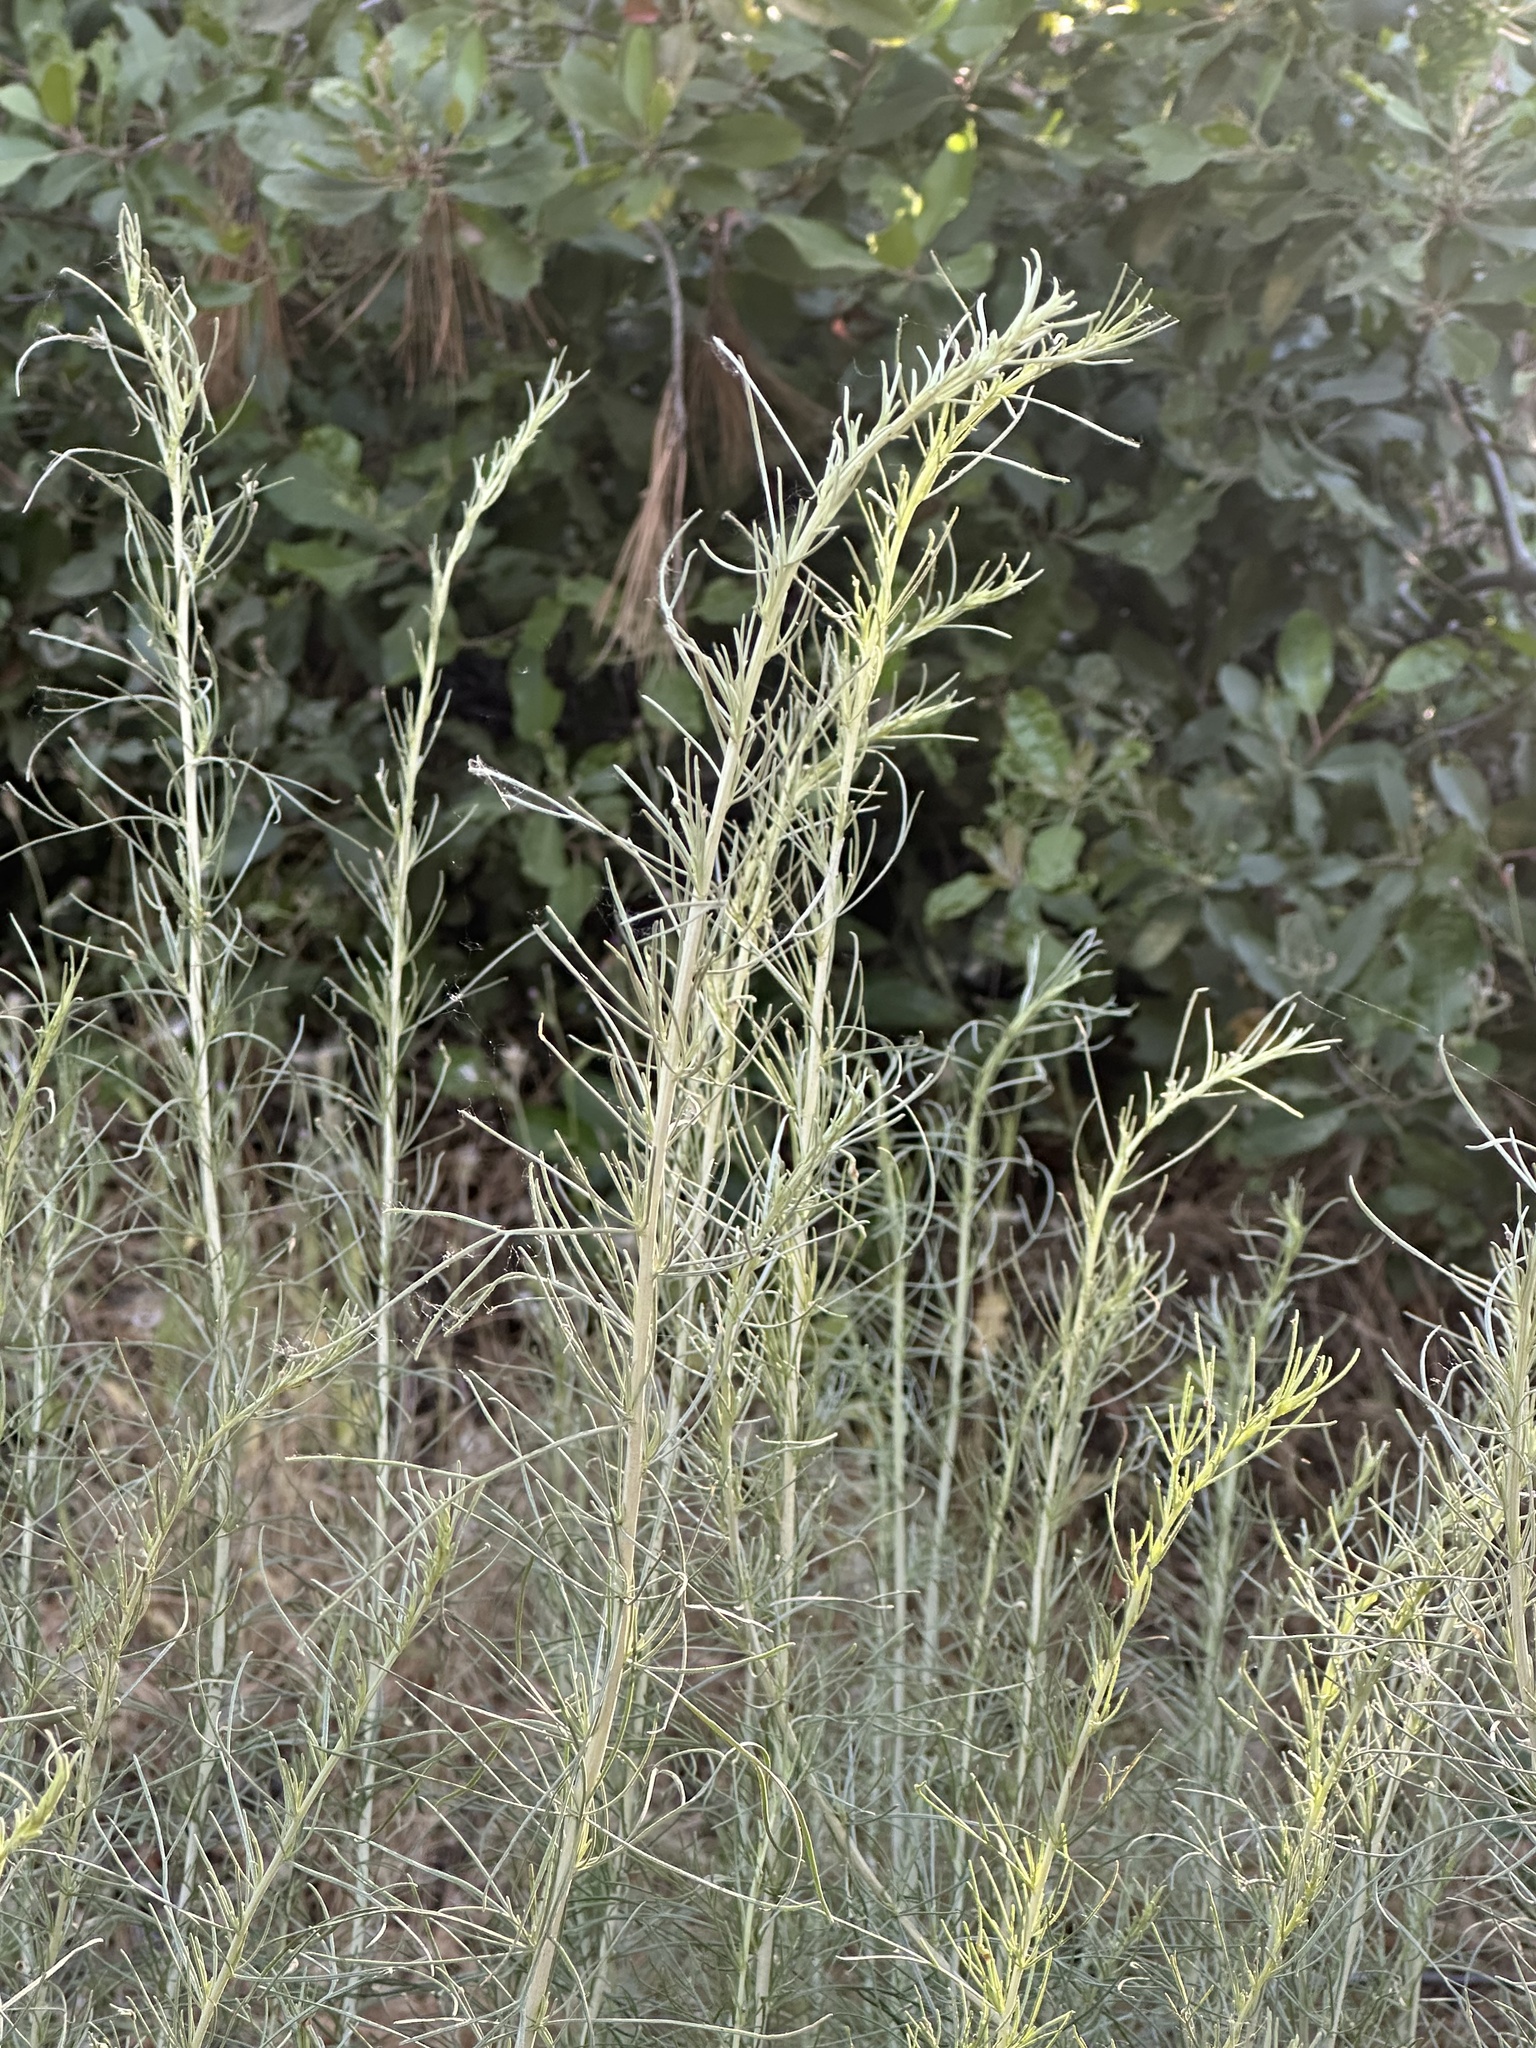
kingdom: Plantae
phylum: Tracheophyta
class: Magnoliopsida
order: Asterales
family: Asteraceae
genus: Artemisia
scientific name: Artemisia californica
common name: California sagebrush
